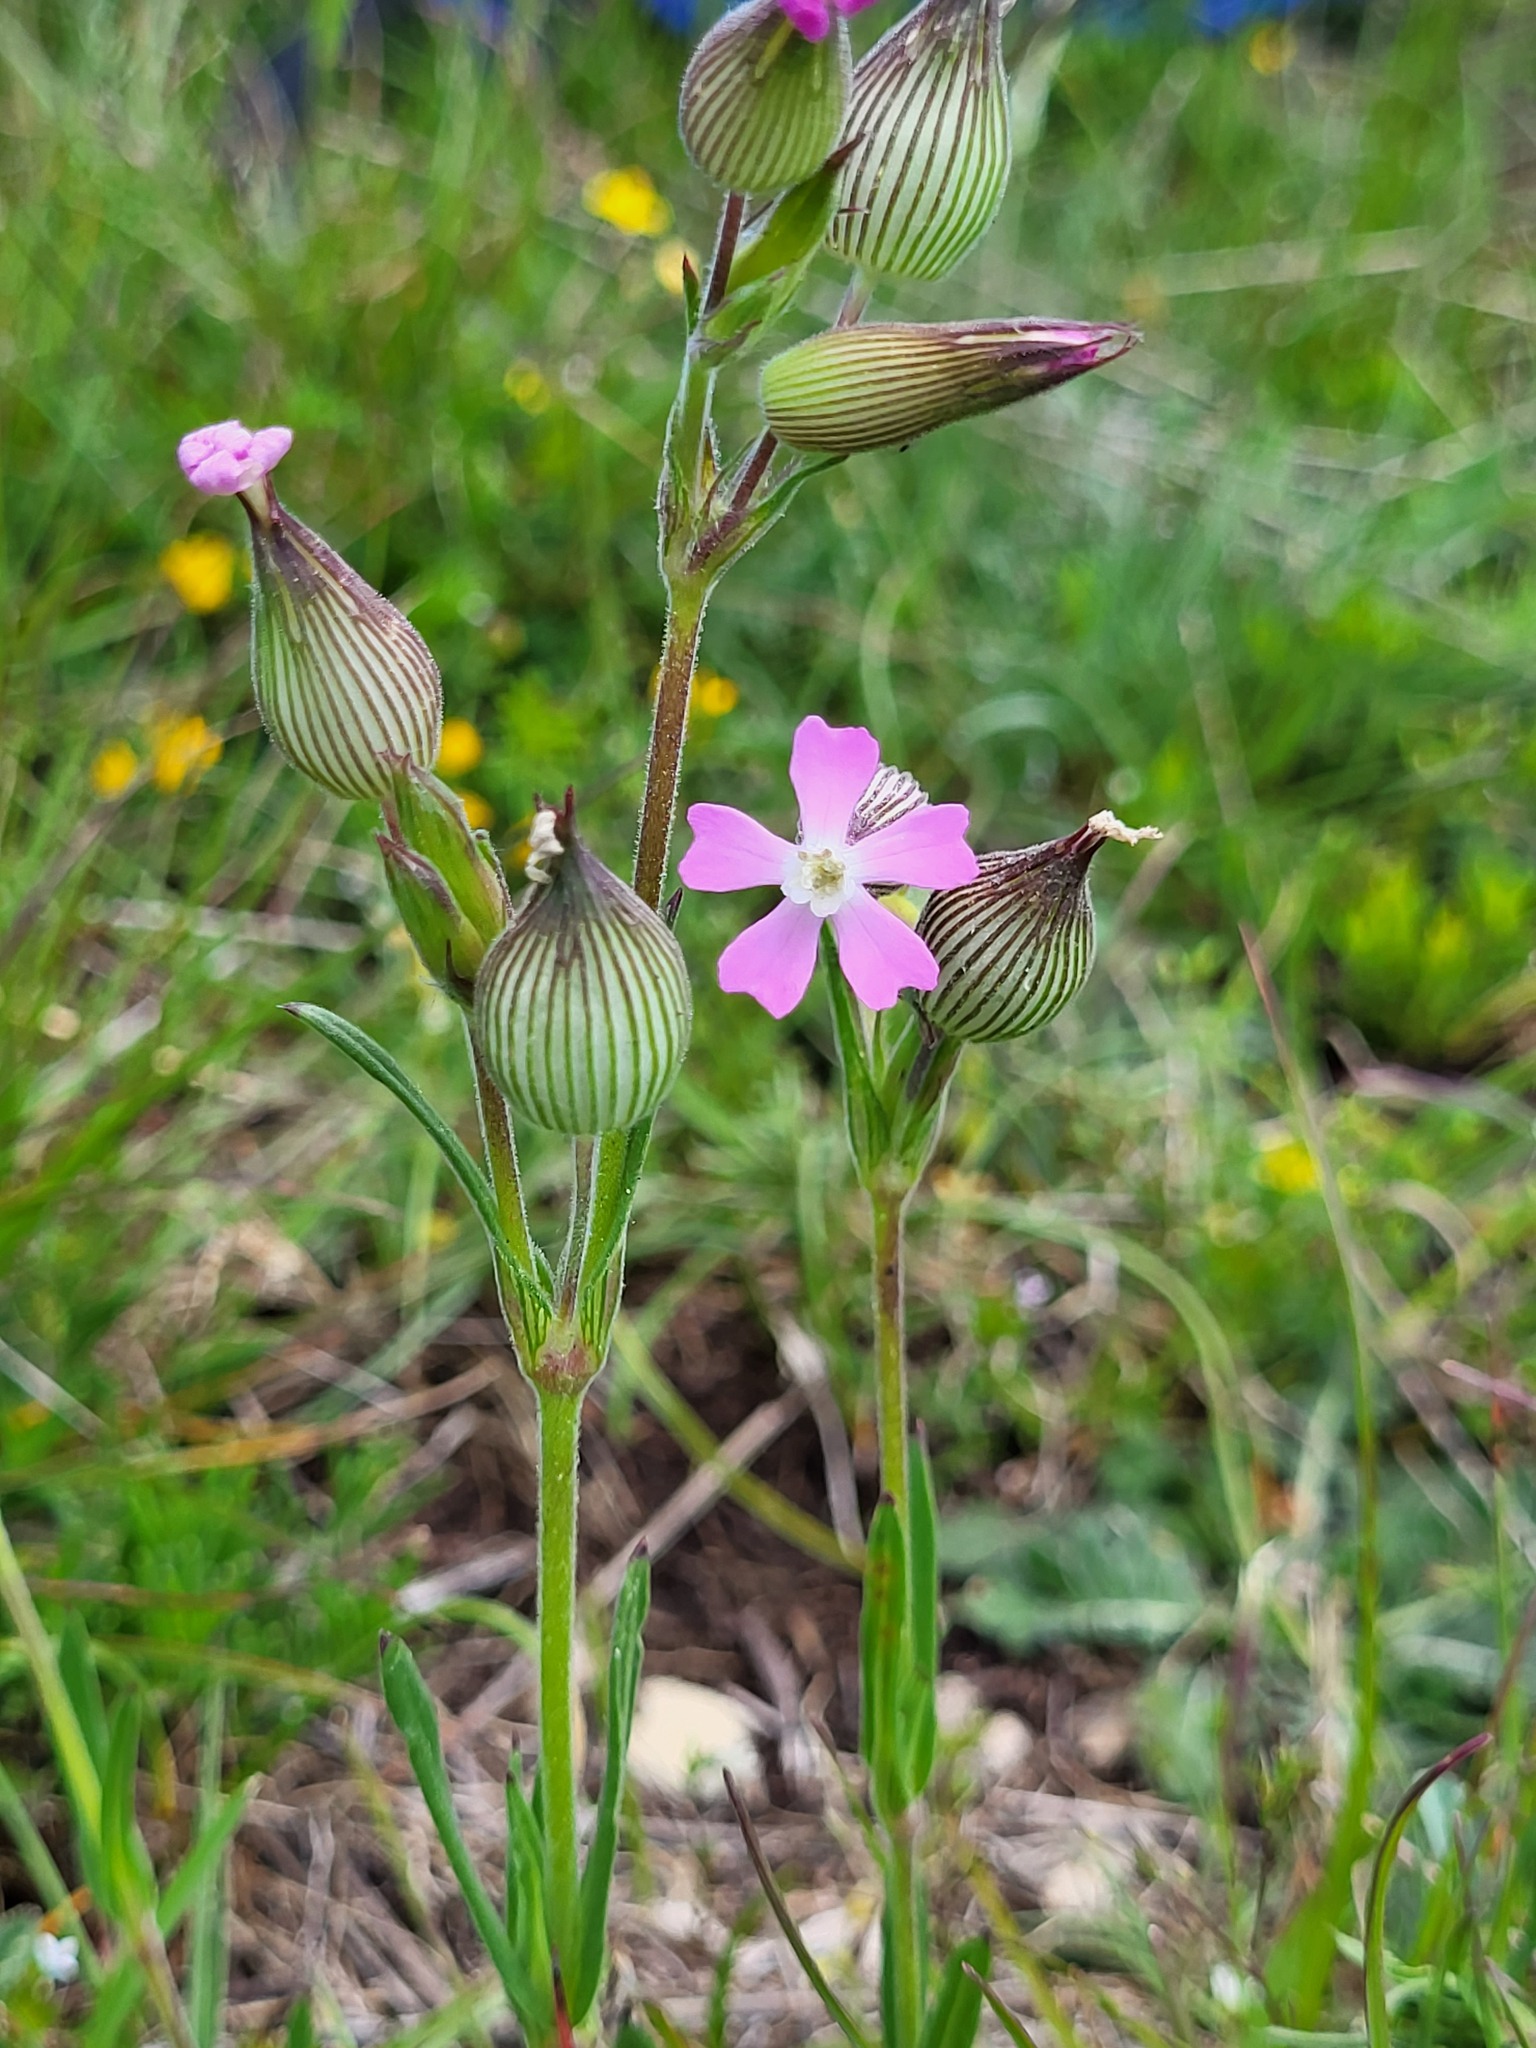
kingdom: Plantae
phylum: Tracheophyta
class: Magnoliopsida
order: Caryophyllales
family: Caryophyllaceae
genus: Silene
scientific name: Silene conica
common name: Sand catchfly
